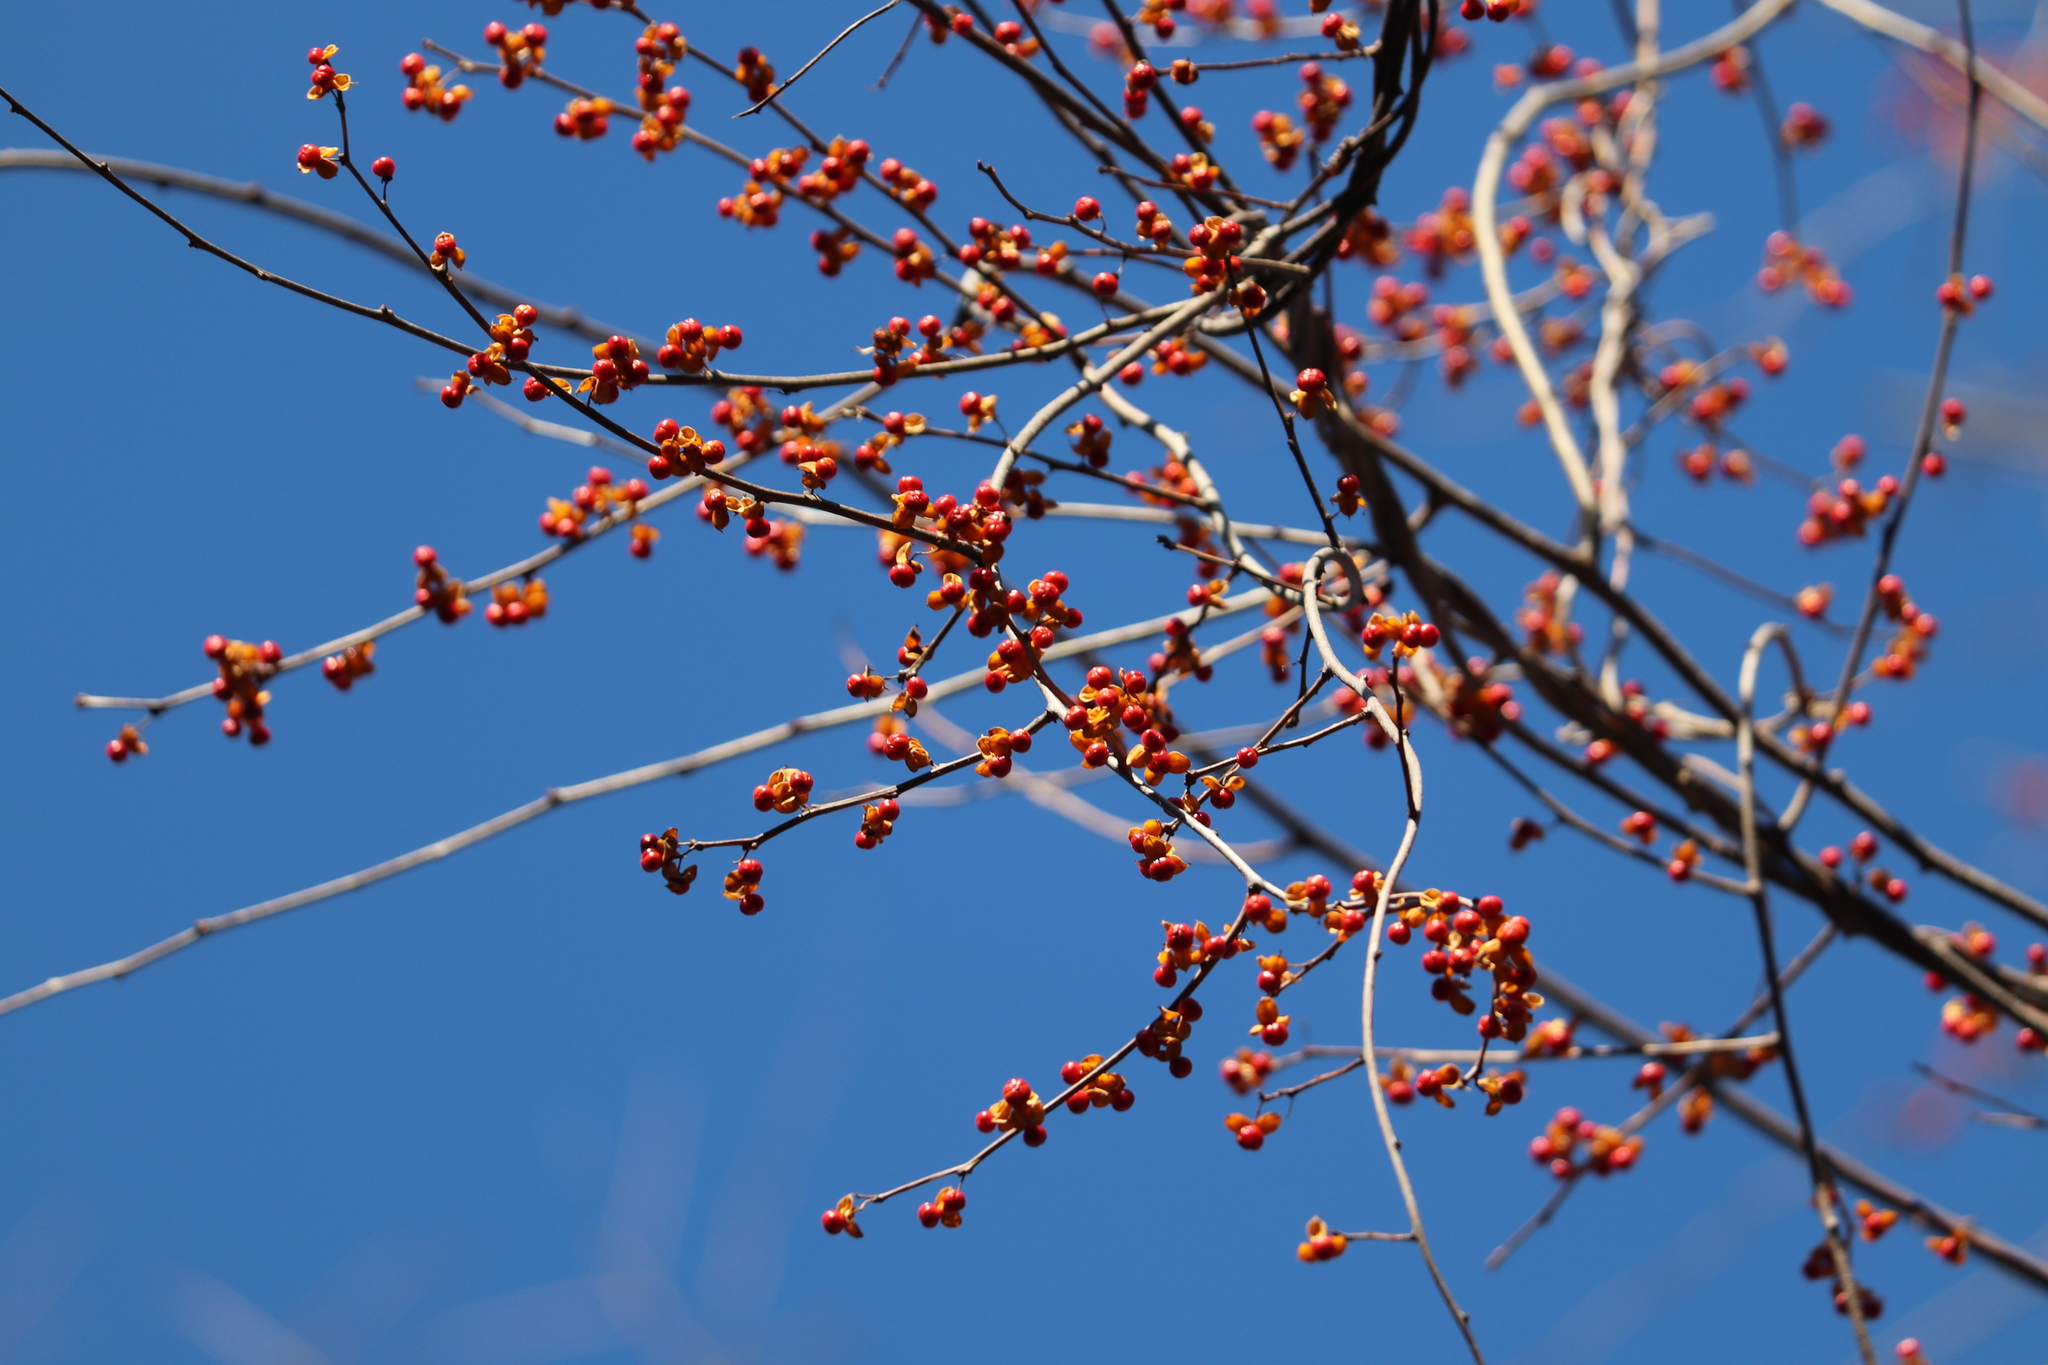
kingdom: Plantae
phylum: Tracheophyta
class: Magnoliopsida
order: Celastrales
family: Celastraceae
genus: Celastrus
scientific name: Celastrus orbiculatus
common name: Oriental bittersweet
